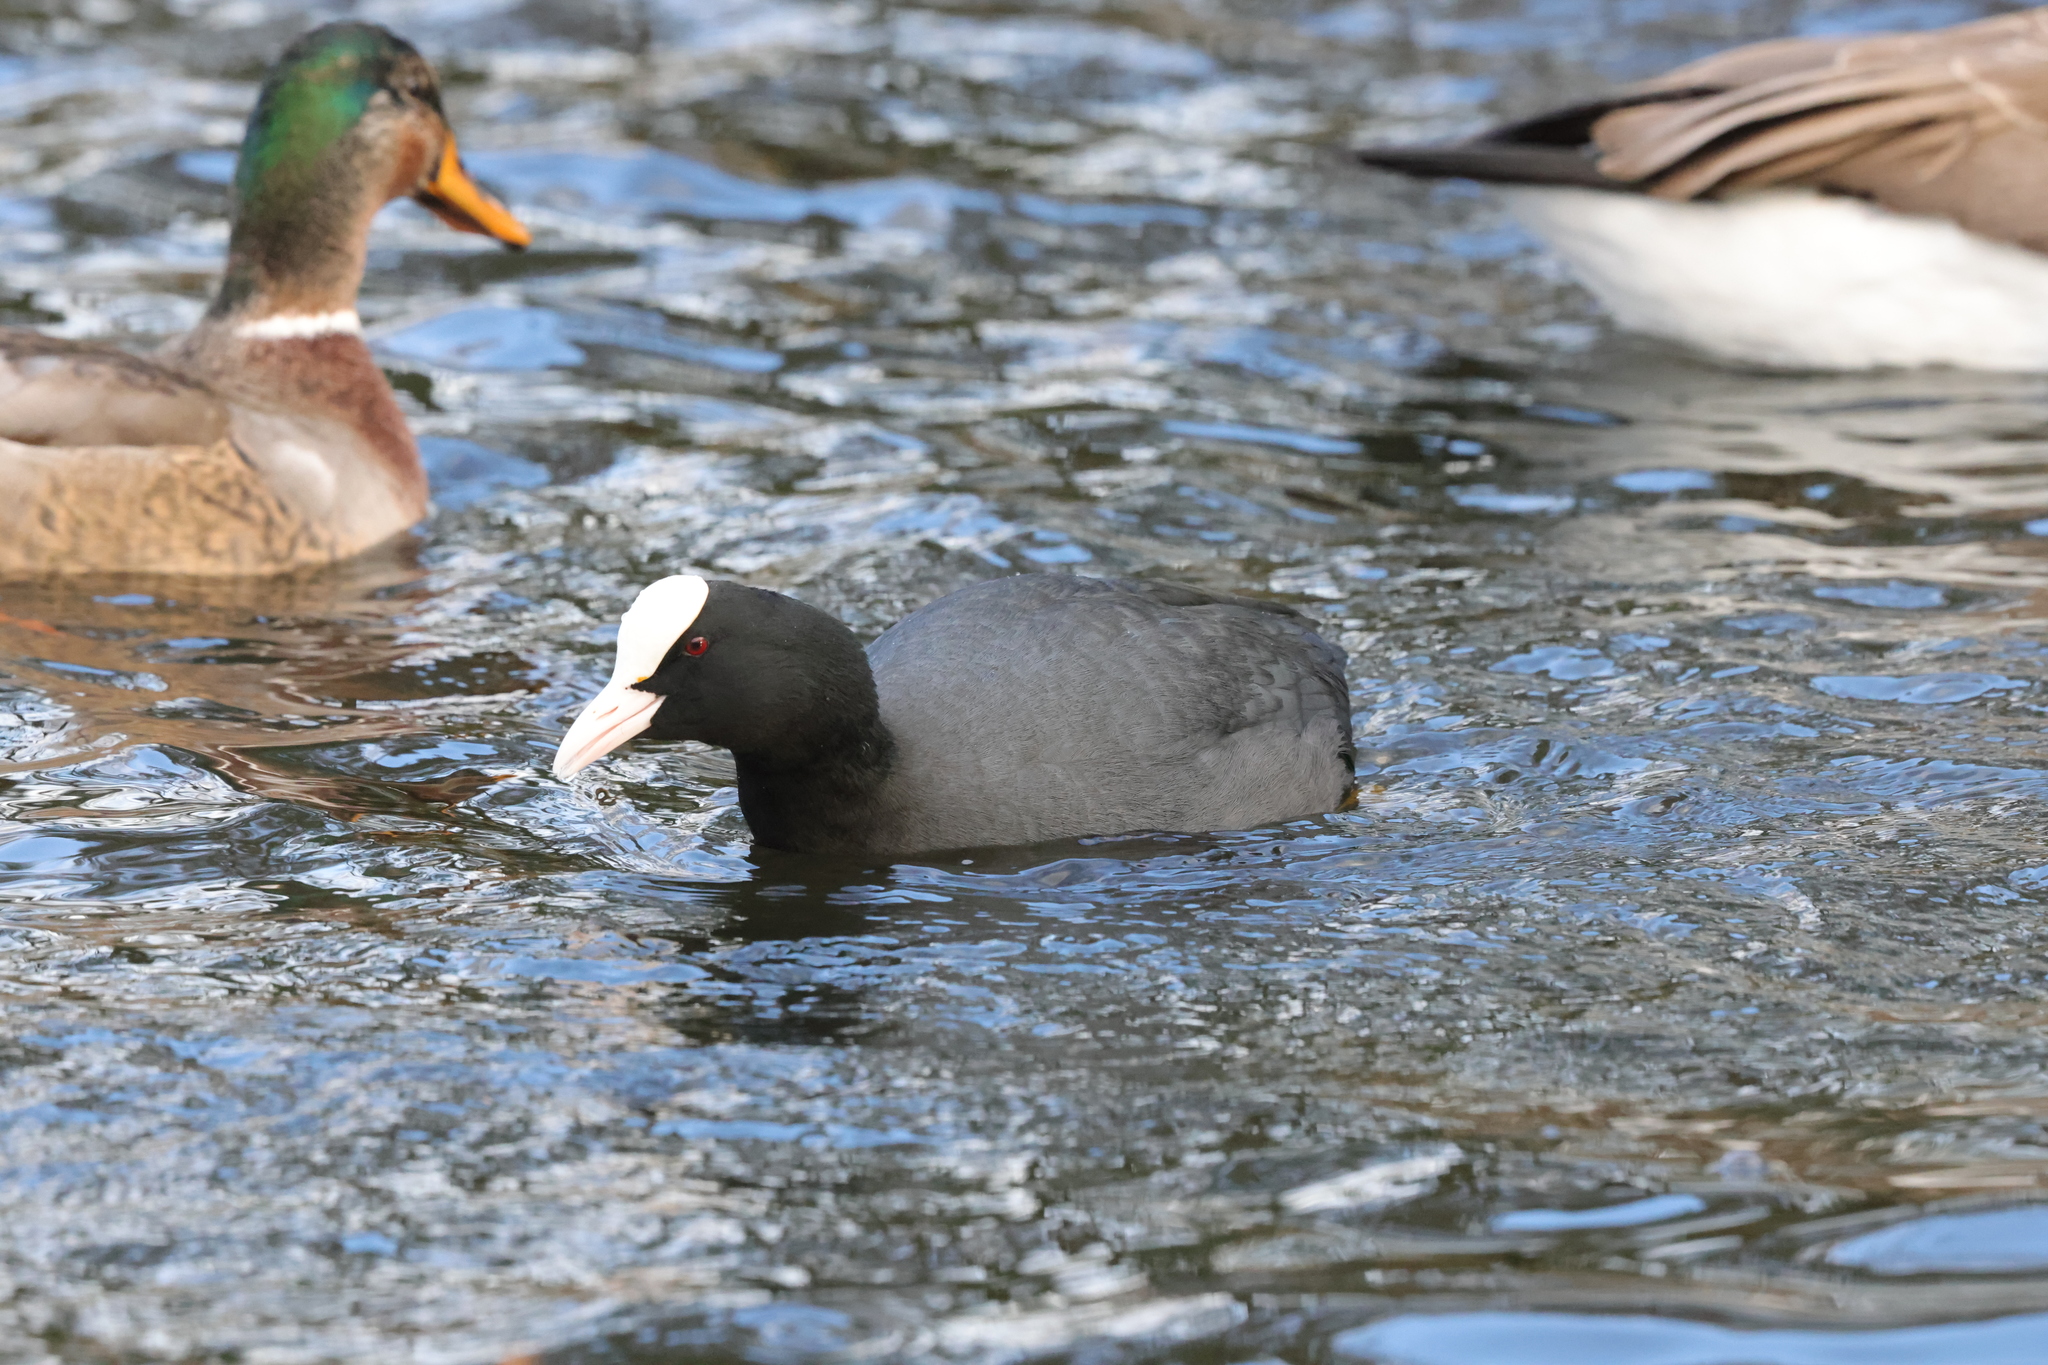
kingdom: Animalia
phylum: Chordata
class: Aves
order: Gruiformes
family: Rallidae
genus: Fulica
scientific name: Fulica atra
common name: Eurasian coot
